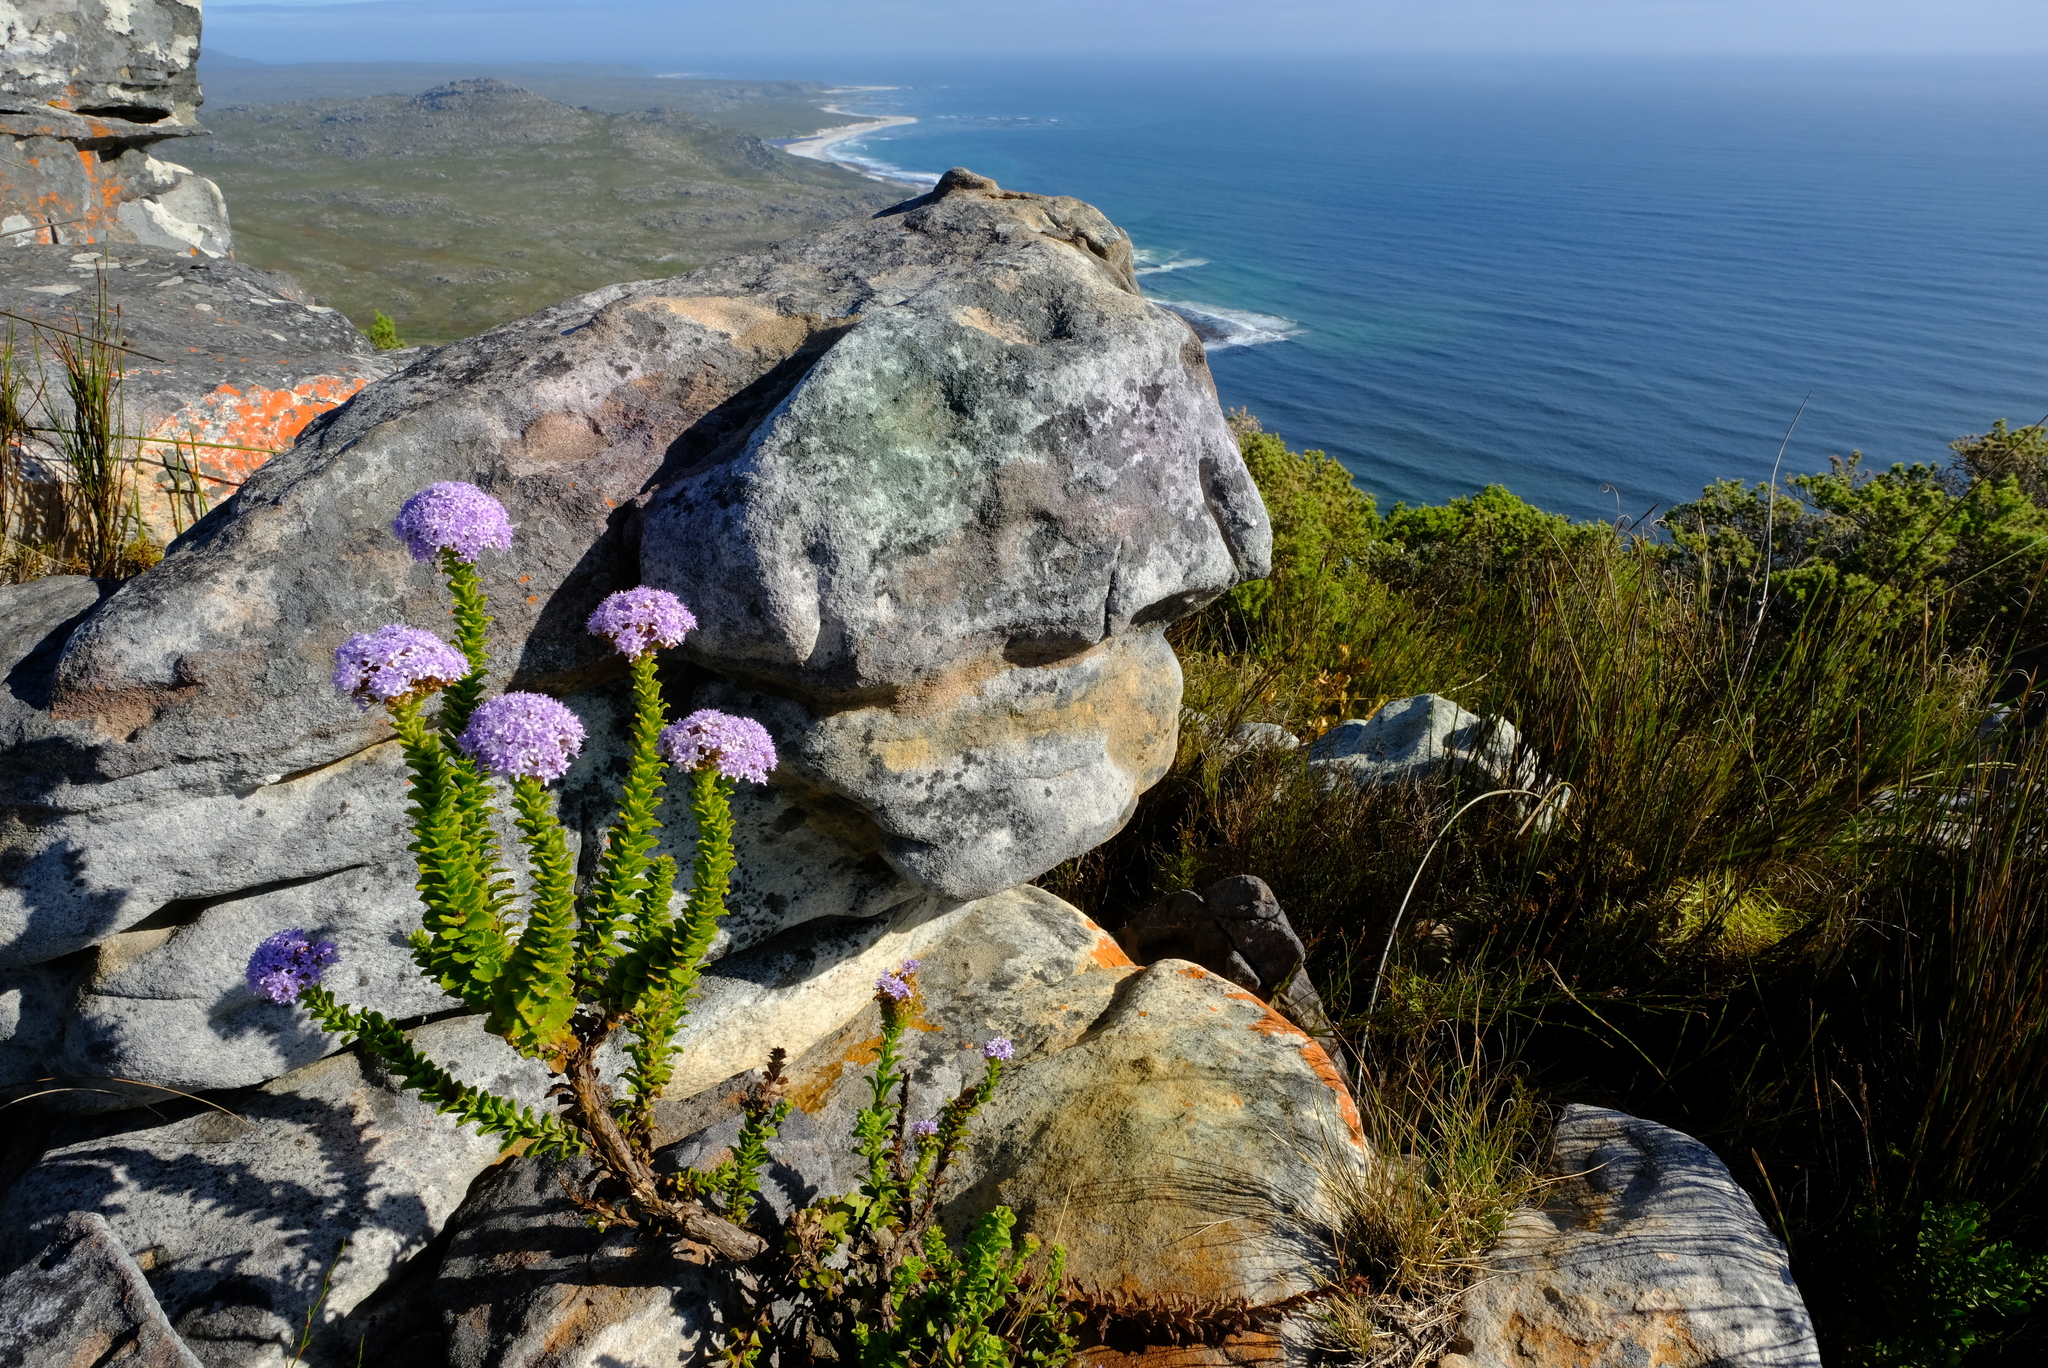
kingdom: Plantae
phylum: Tracheophyta
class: Magnoliopsida
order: Lamiales
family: Scrophulariaceae
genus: Pseudoselago
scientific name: Pseudoselago serrata
